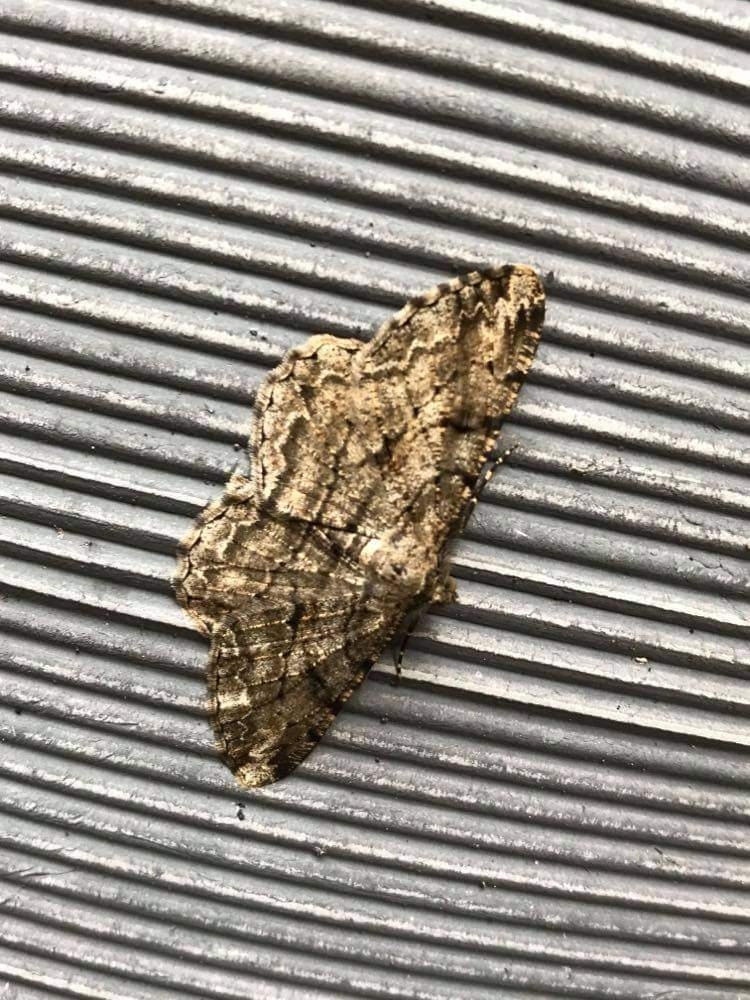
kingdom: Animalia
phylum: Arthropoda
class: Insecta
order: Lepidoptera
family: Geometridae
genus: Peribatodes
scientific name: Peribatodes rhomboidaria
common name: Willow beauty
